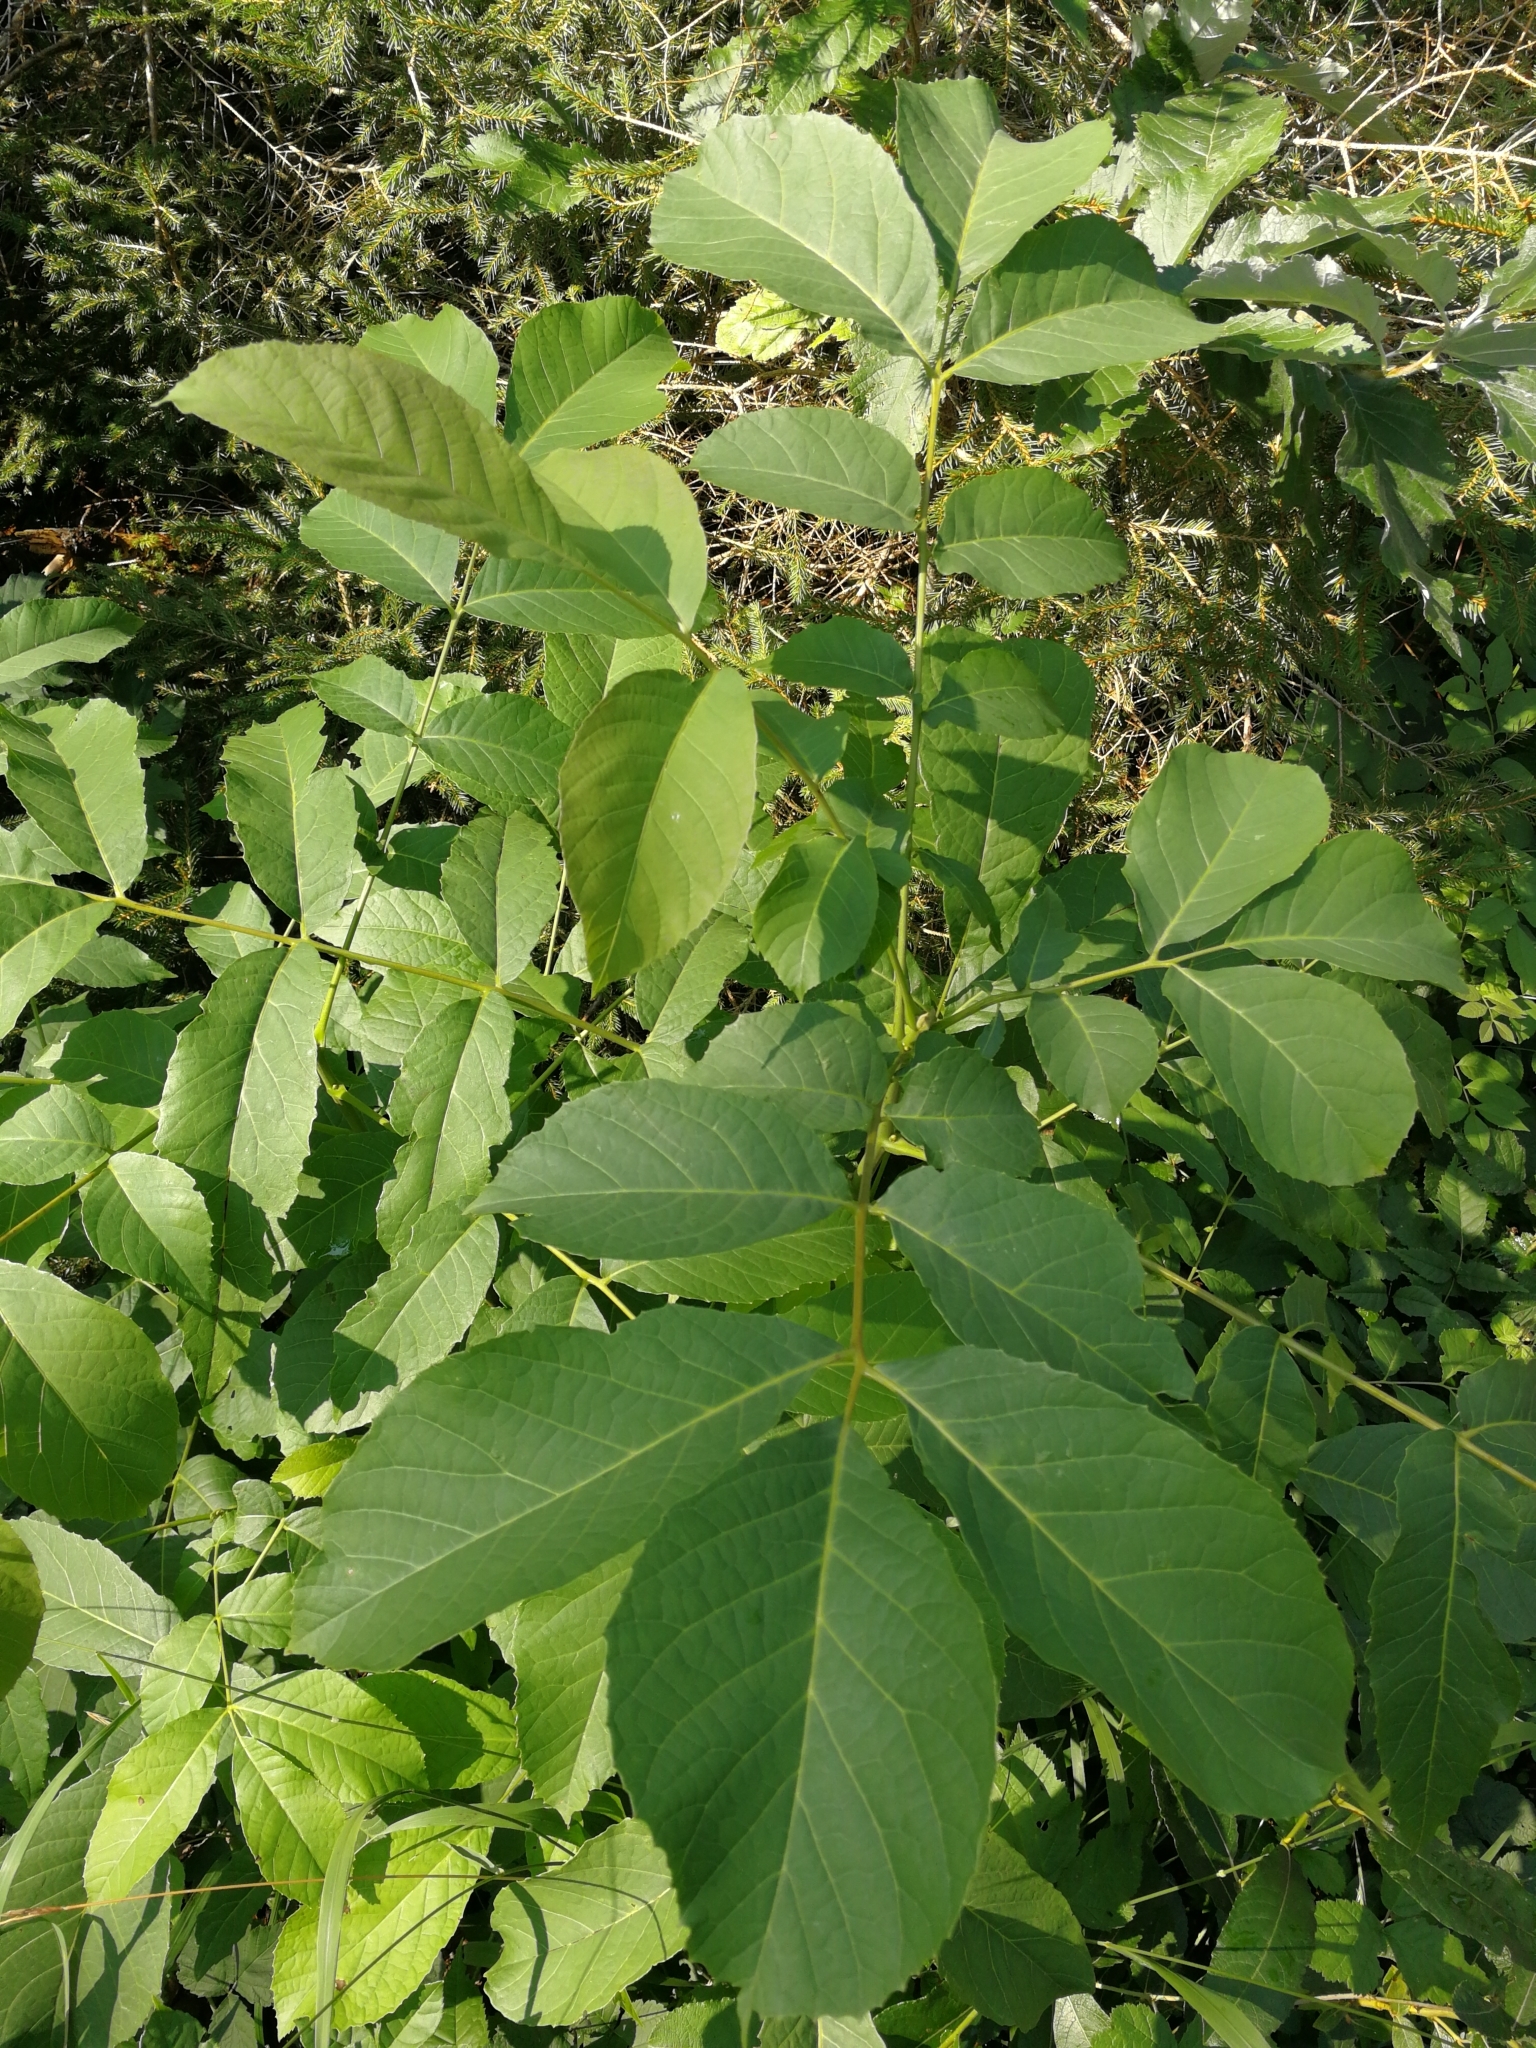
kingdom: Plantae
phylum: Tracheophyta
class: Magnoliopsida
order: Fagales
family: Juglandaceae
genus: Juglans
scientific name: Juglans regia
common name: Walnut
